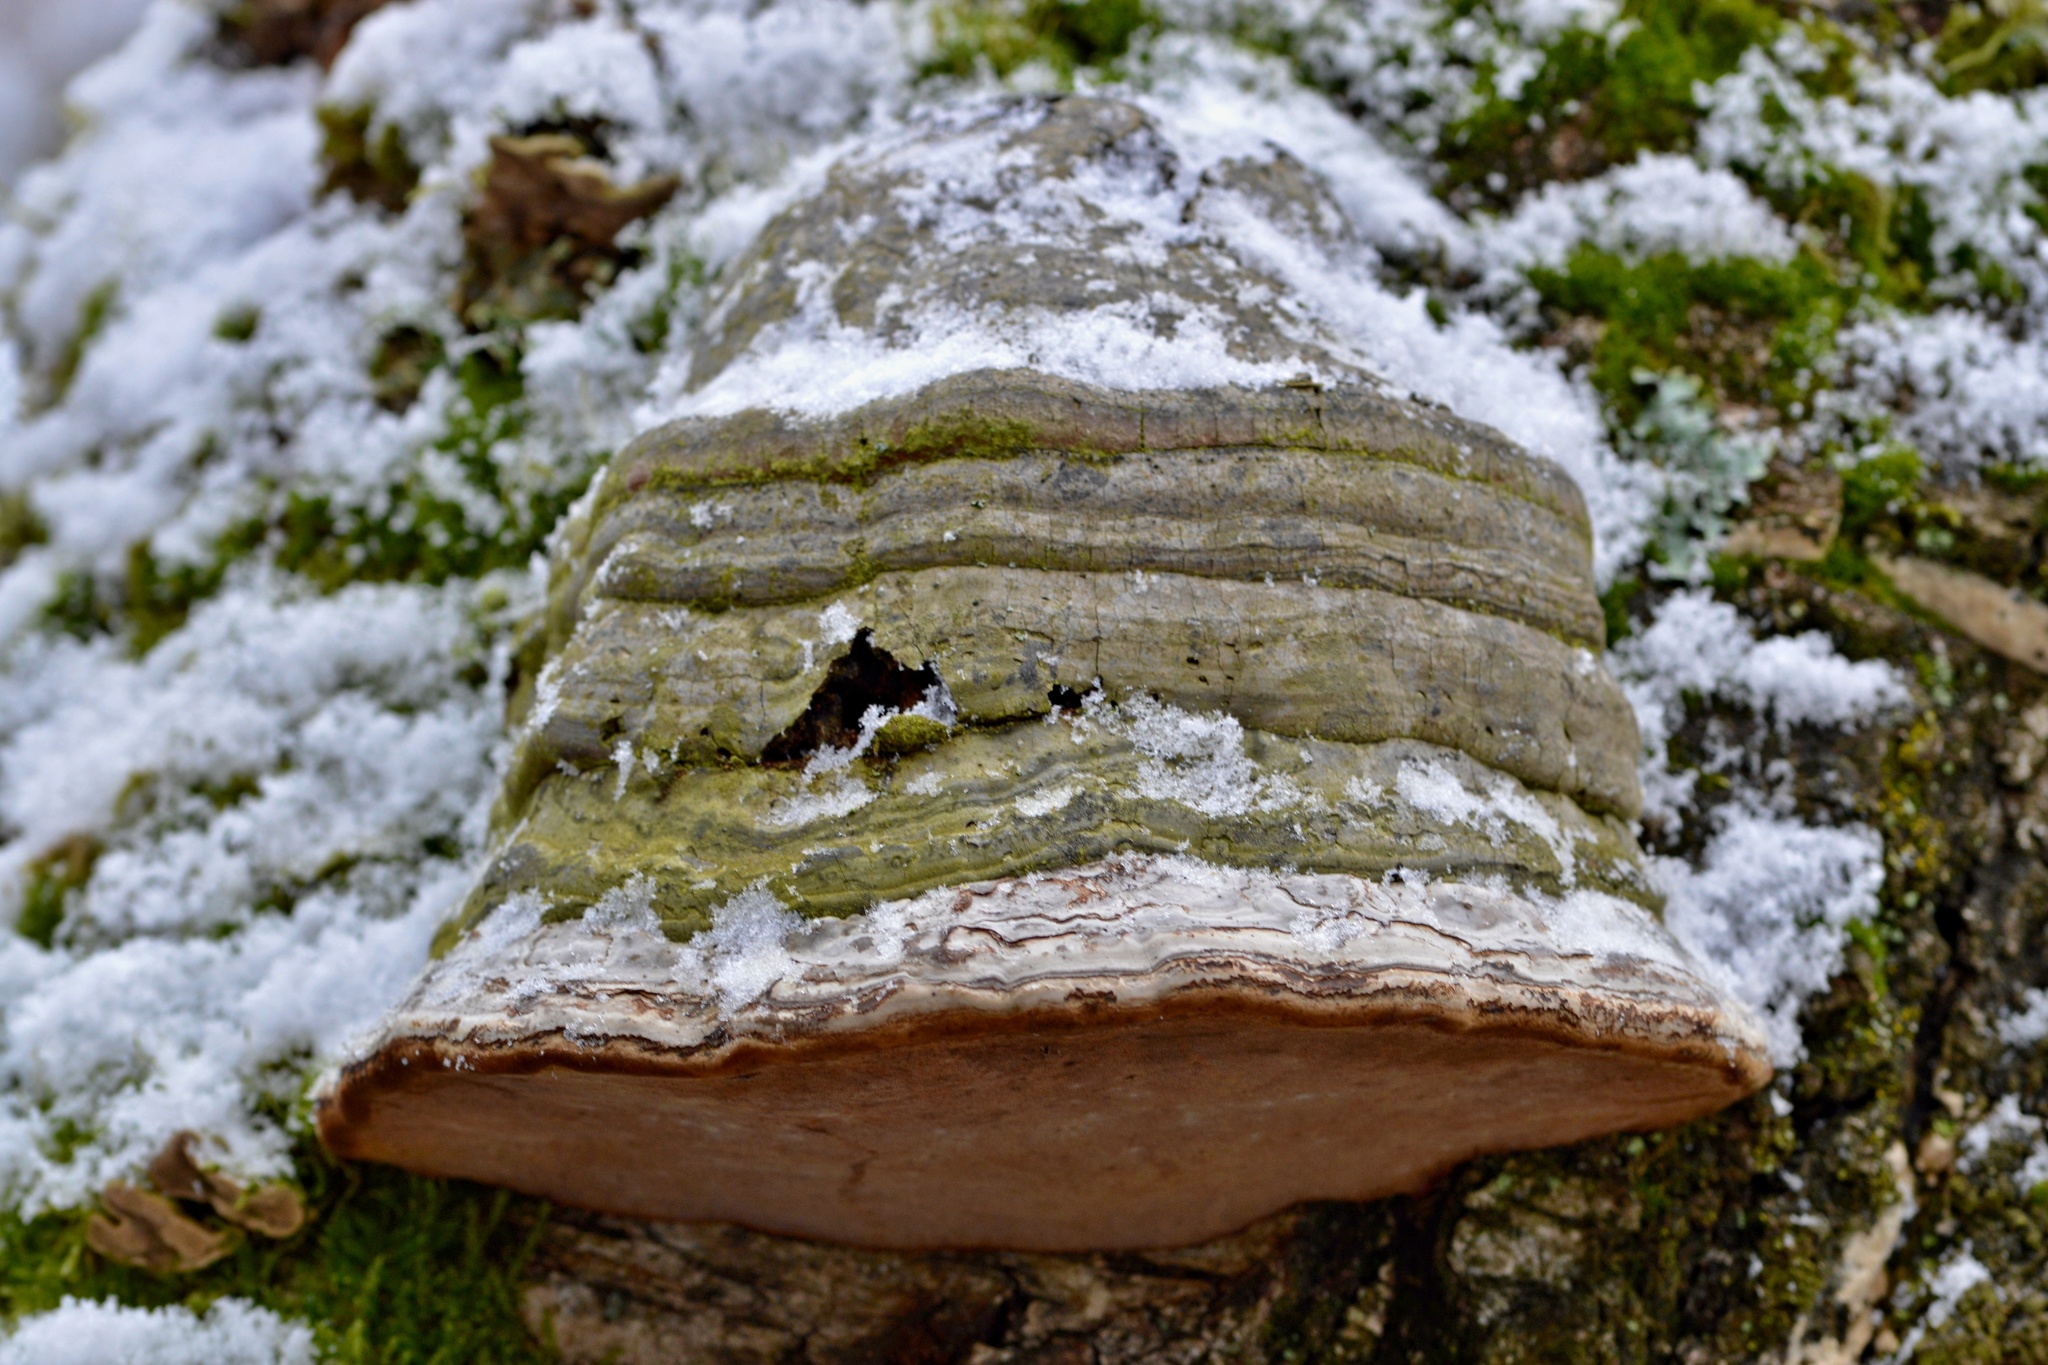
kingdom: Fungi
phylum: Basidiomycota
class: Agaricomycetes
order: Polyporales
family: Polyporaceae
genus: Fomes
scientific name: Fomes fomentarius
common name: Hoof fungus
